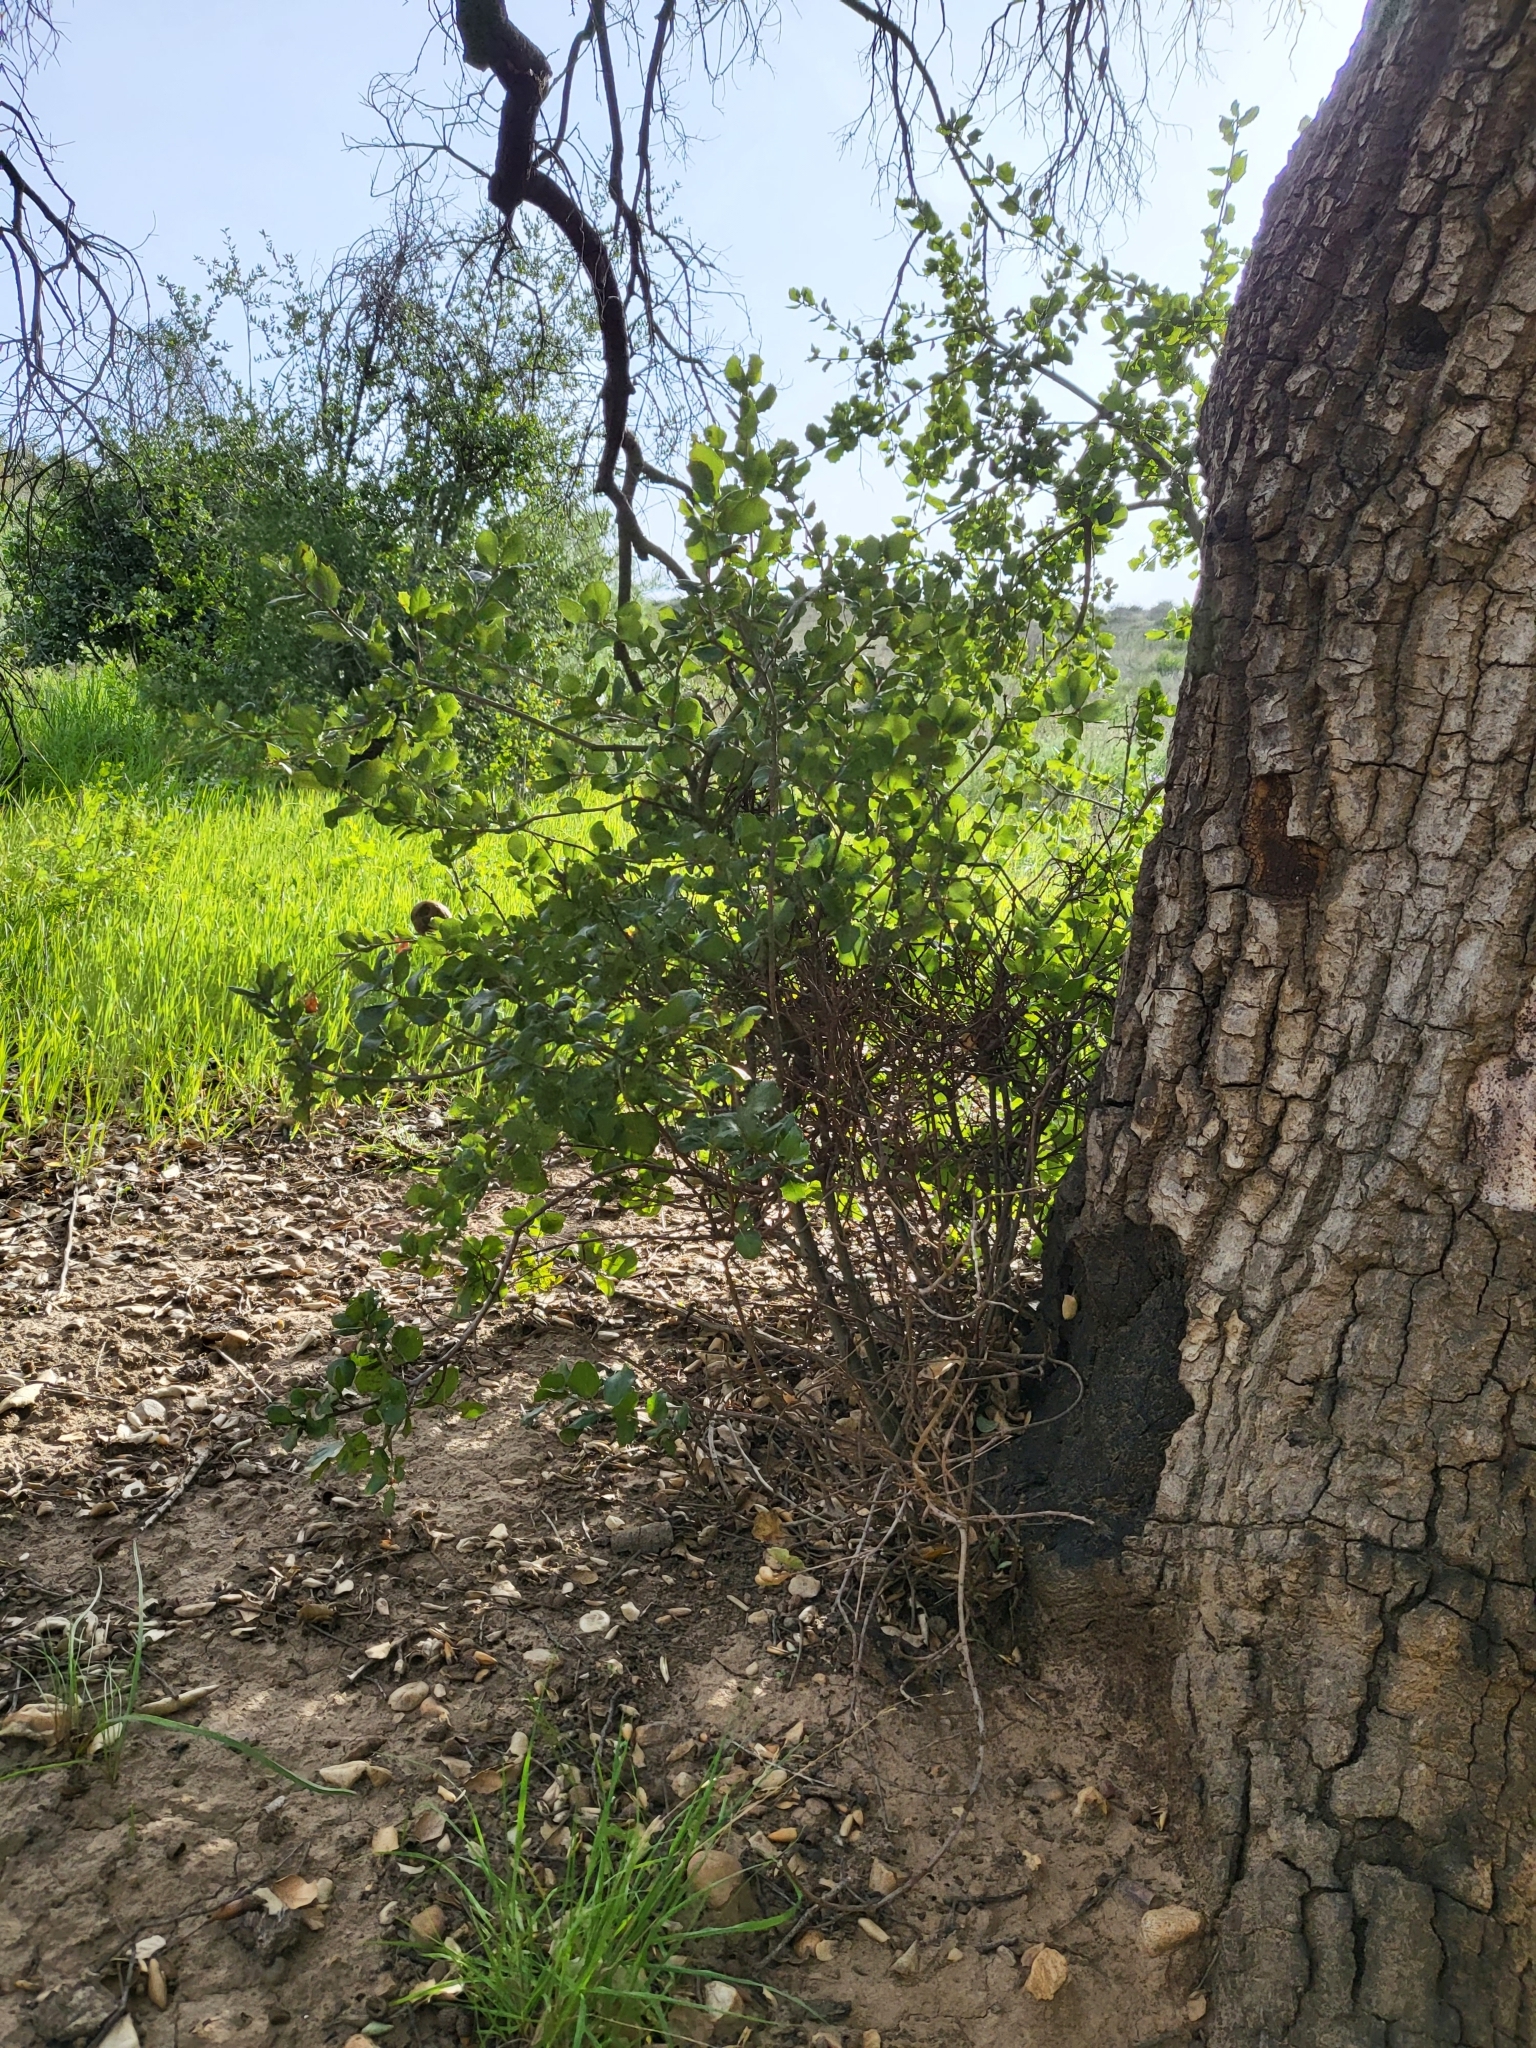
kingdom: Plantae
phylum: Tracheophyta
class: Magnoliopsida
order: Fagales
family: Fagaceae
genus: Quercus
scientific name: Quercus agrifolia
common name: California live oak
